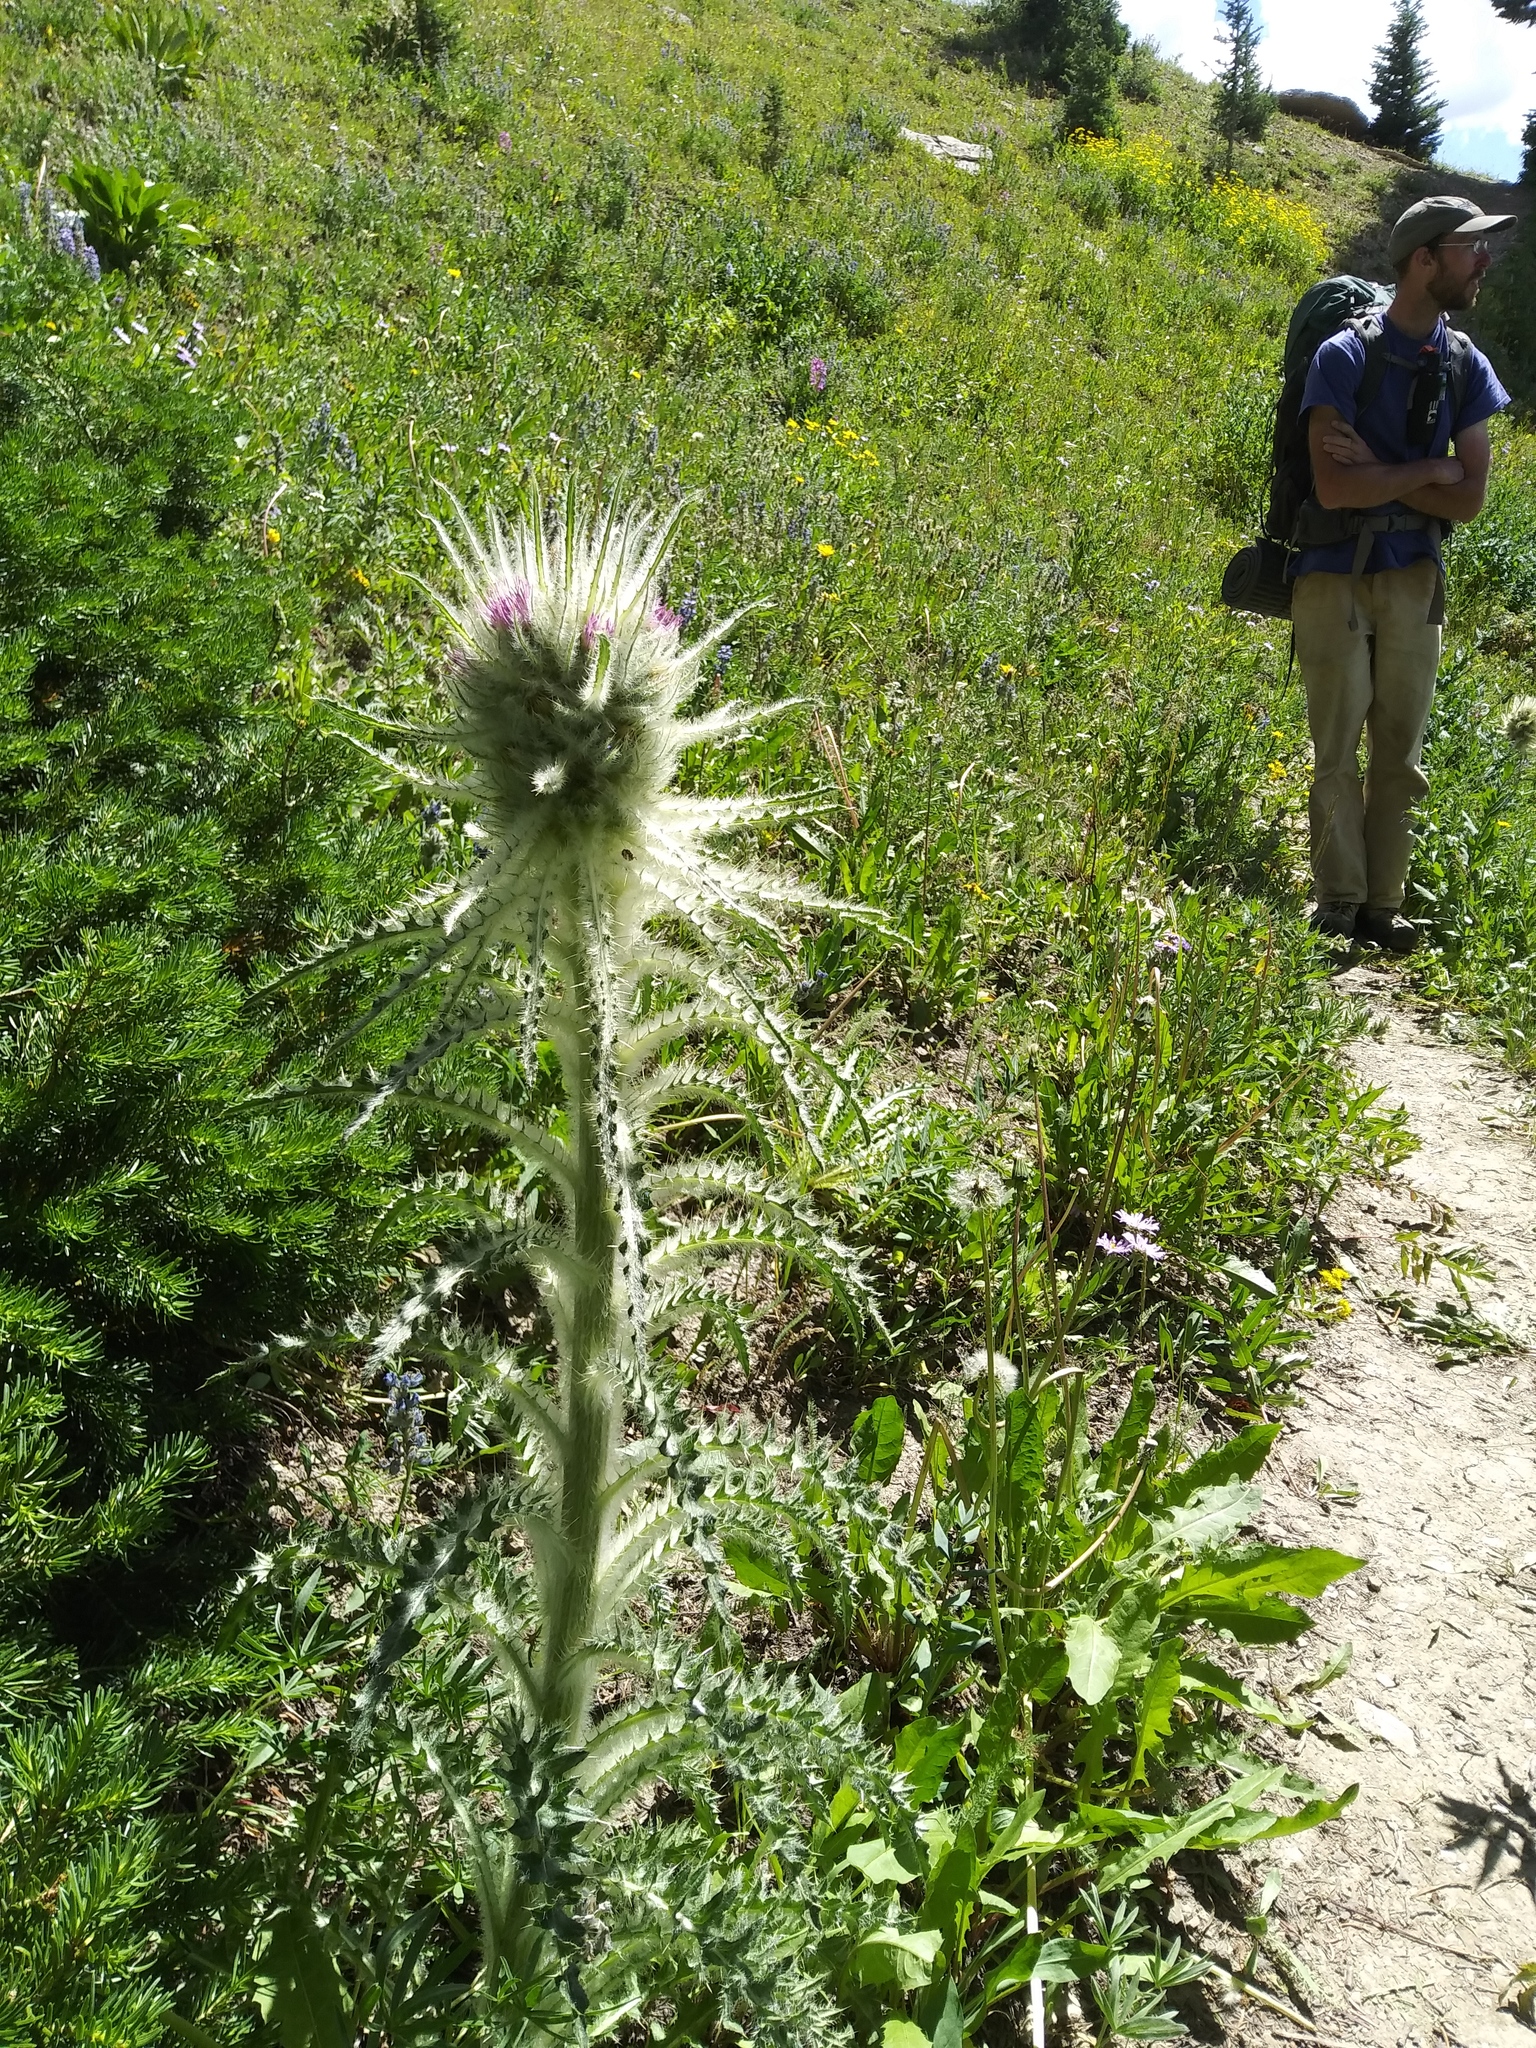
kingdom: Plantae
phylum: Tracheophyta
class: Magnoliopsida
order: Asterales
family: Asteraceae
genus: Cirsium
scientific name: Cirsium scariosum
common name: Meadow thistle
